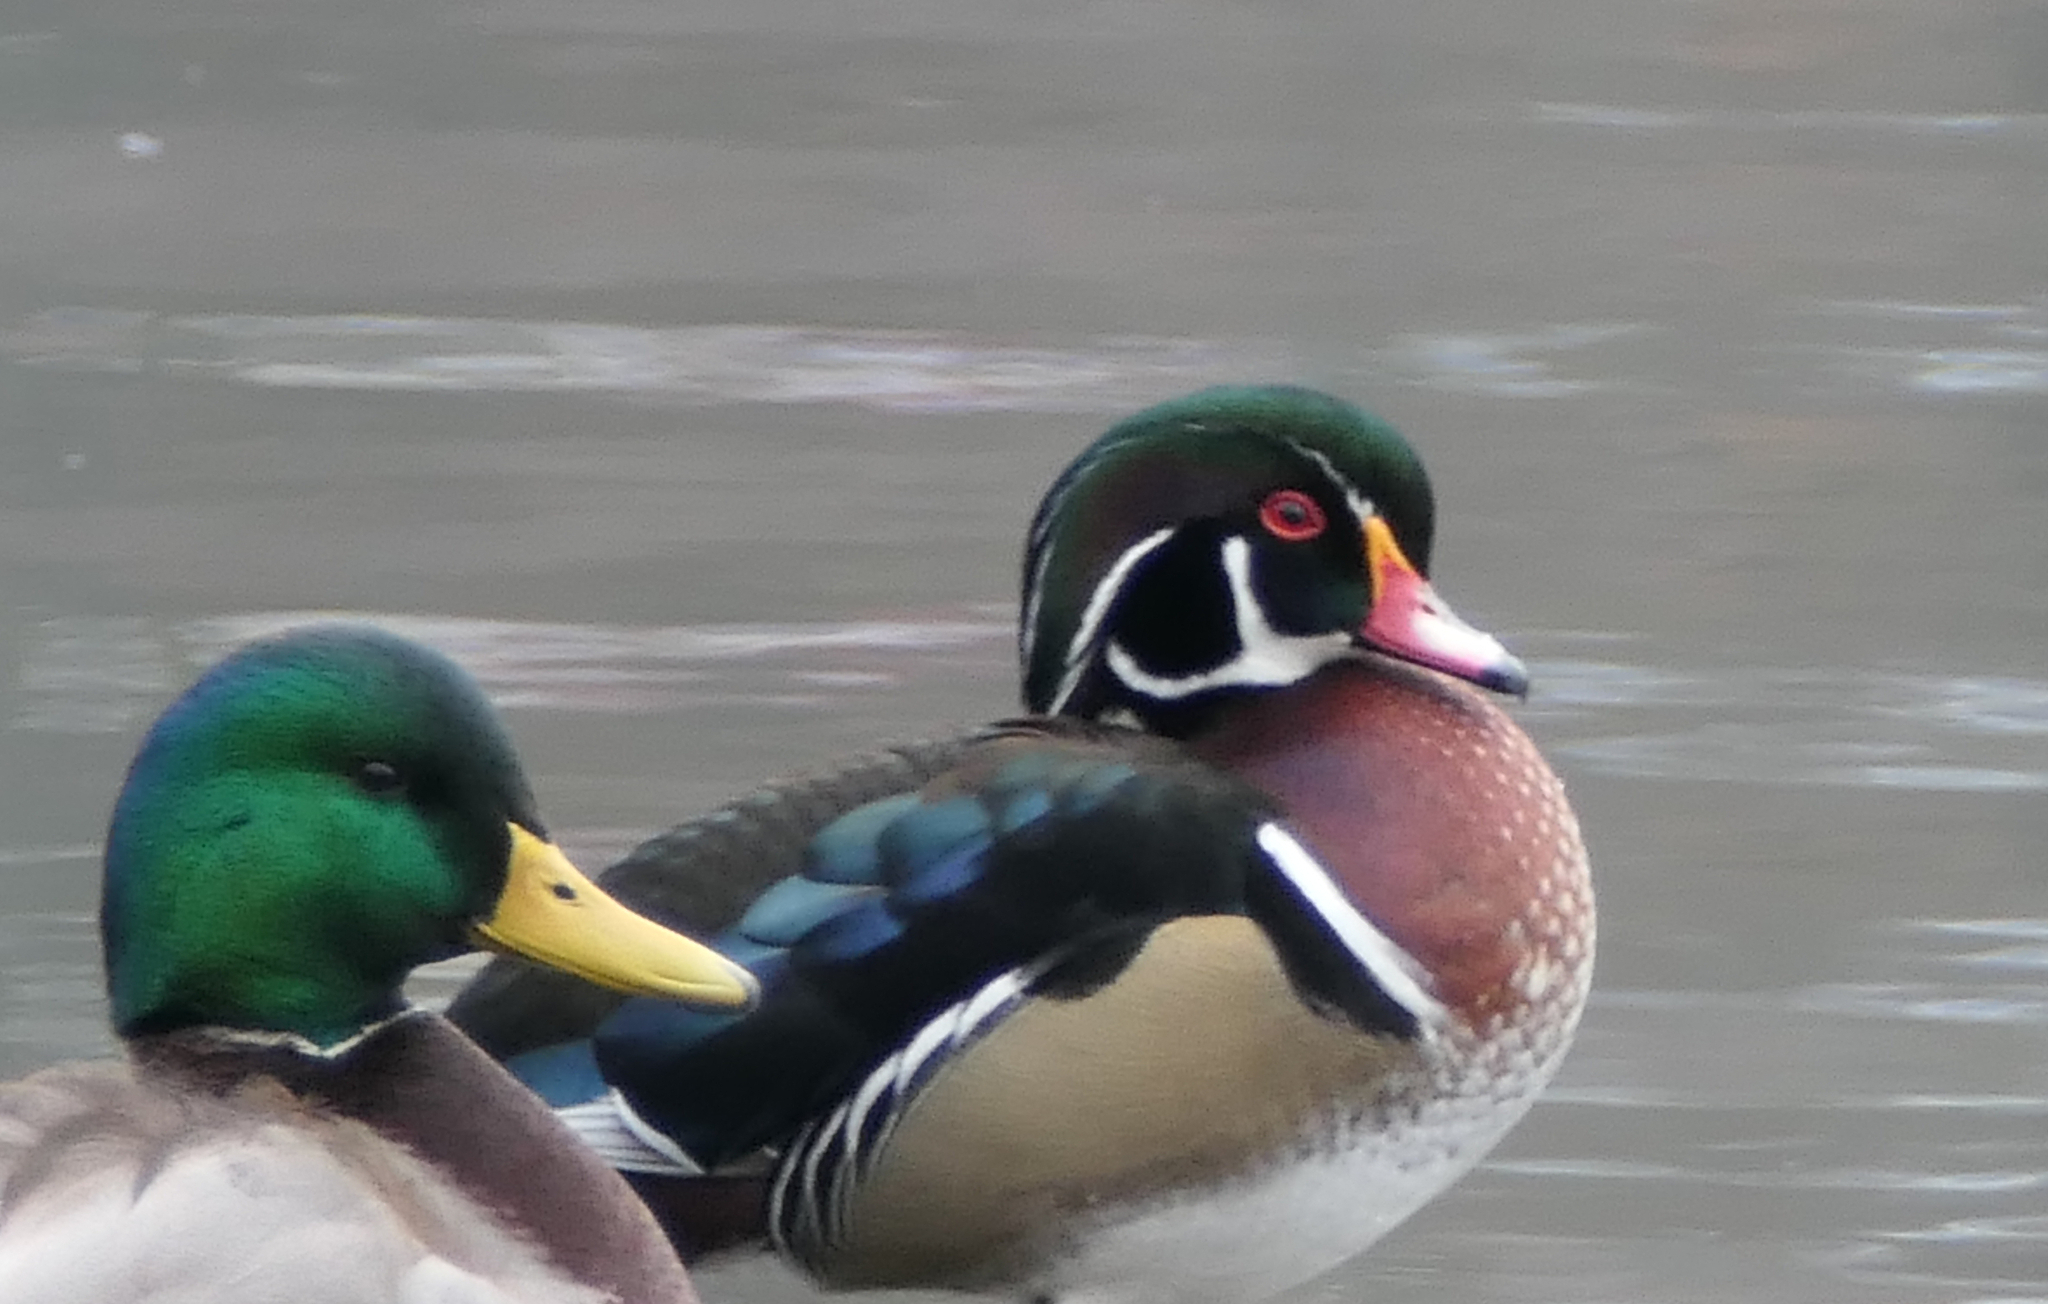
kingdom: Animalia
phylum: Chordata
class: Aves
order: Anseriformes
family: Anatidae
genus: Aix
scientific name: Aix sponsa
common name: Wood duck
